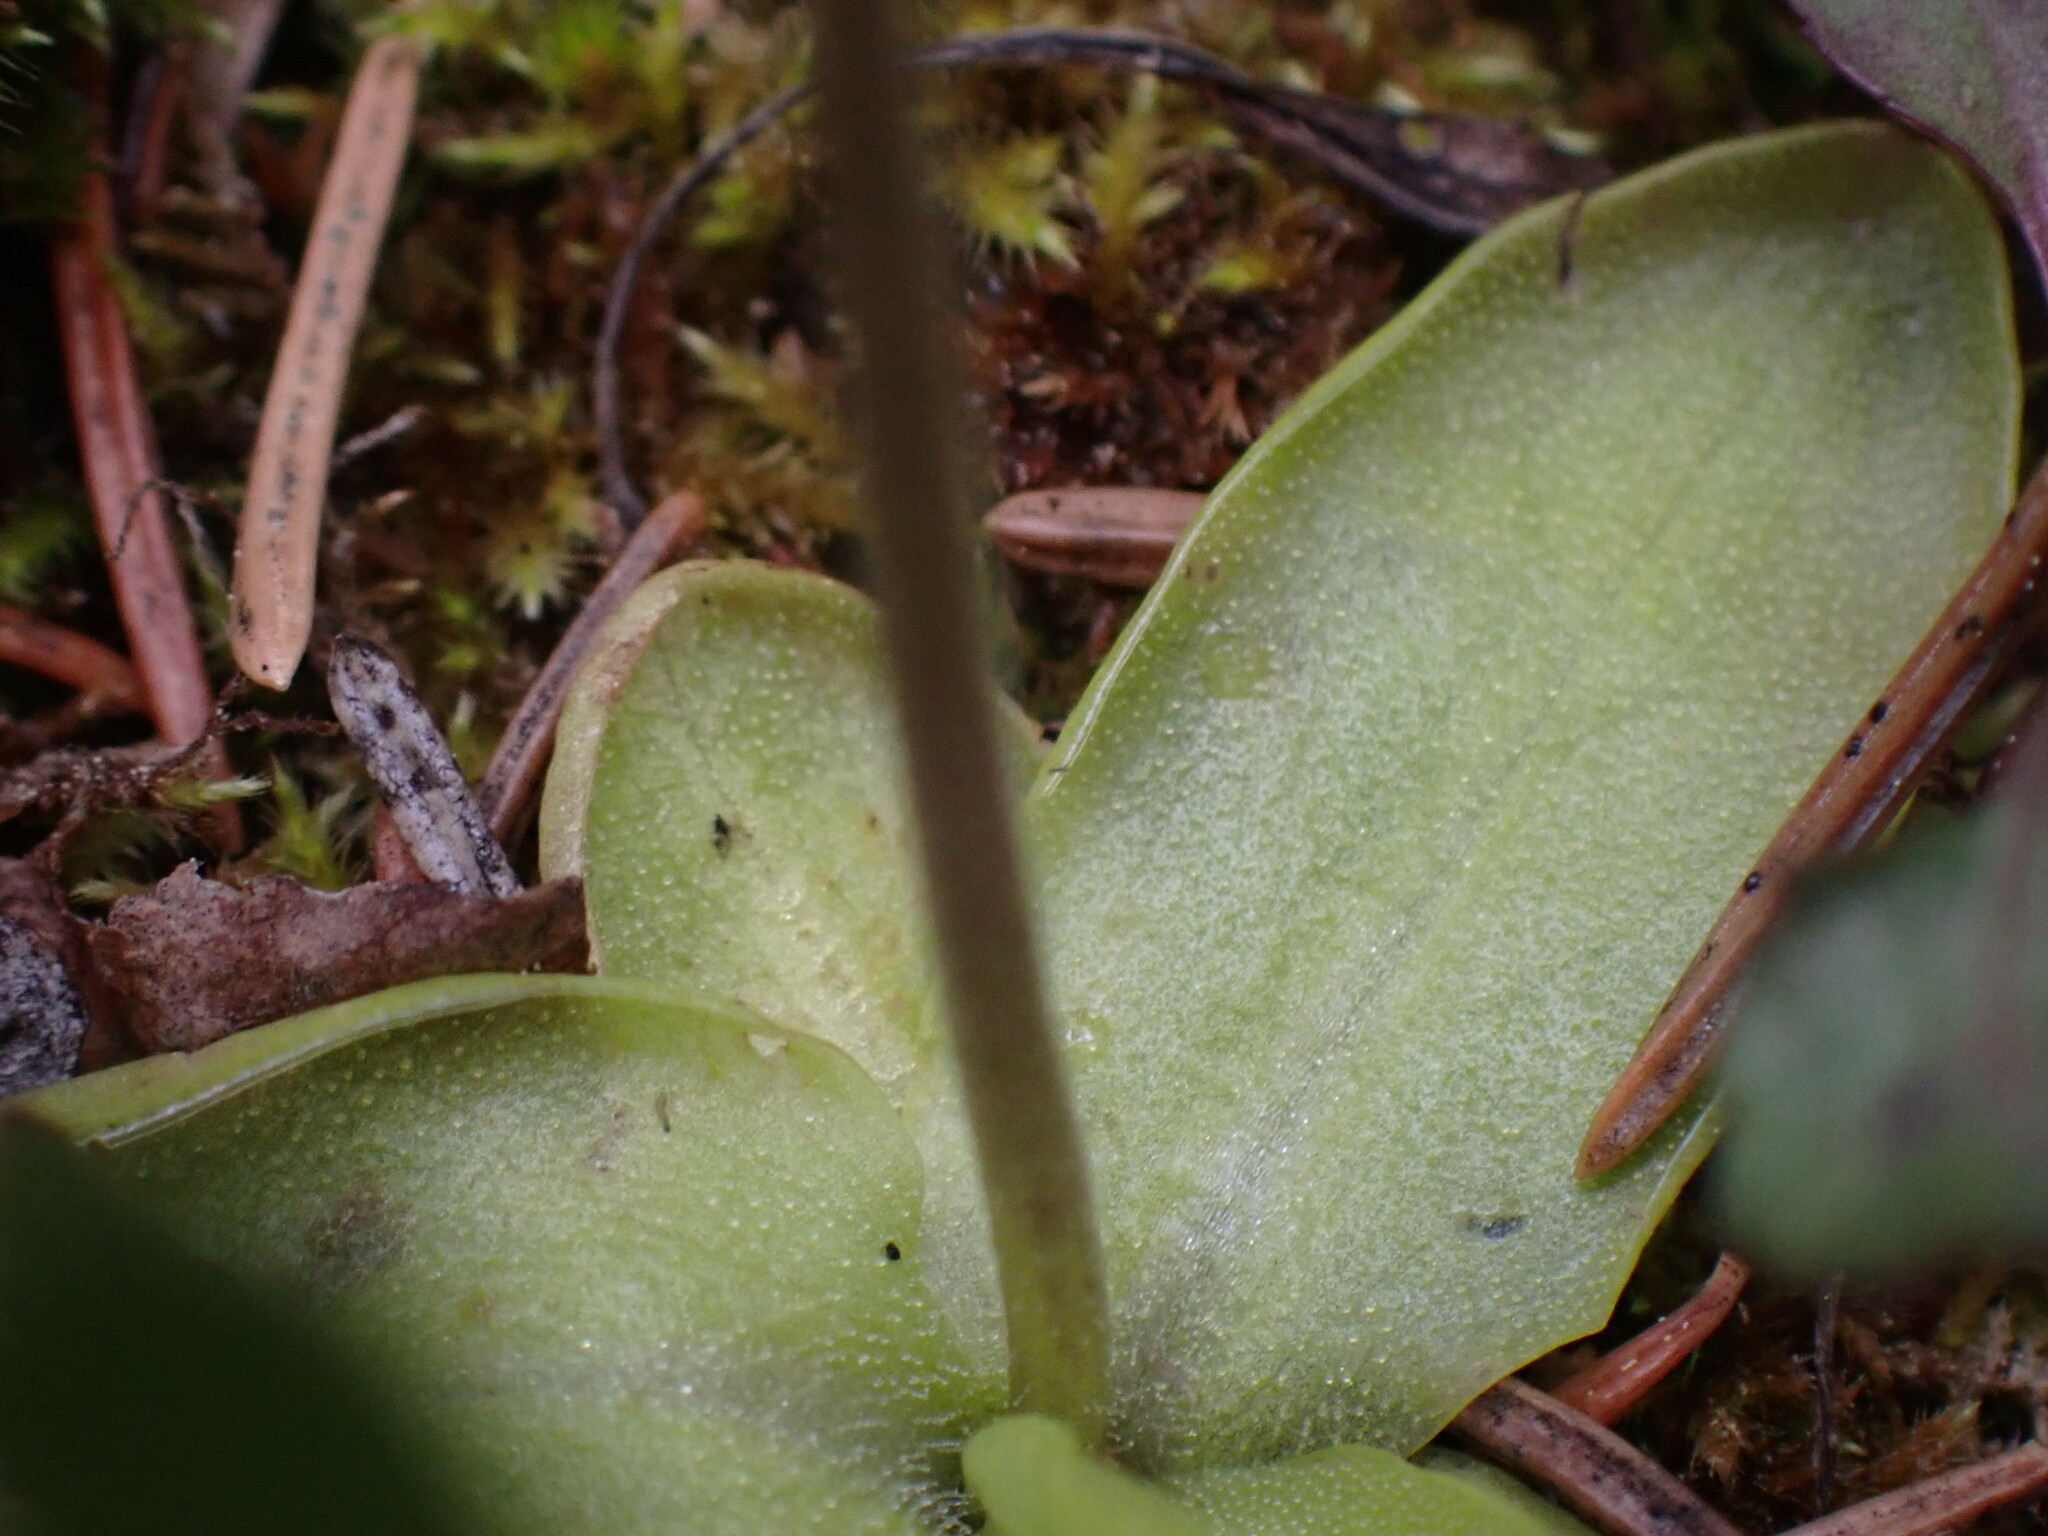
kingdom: Plantae
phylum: Tracheophyta
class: Magnoliopsida
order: Lamiales
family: Lentibulariaceae
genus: Pinguicula
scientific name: Pinguicula macroceras
